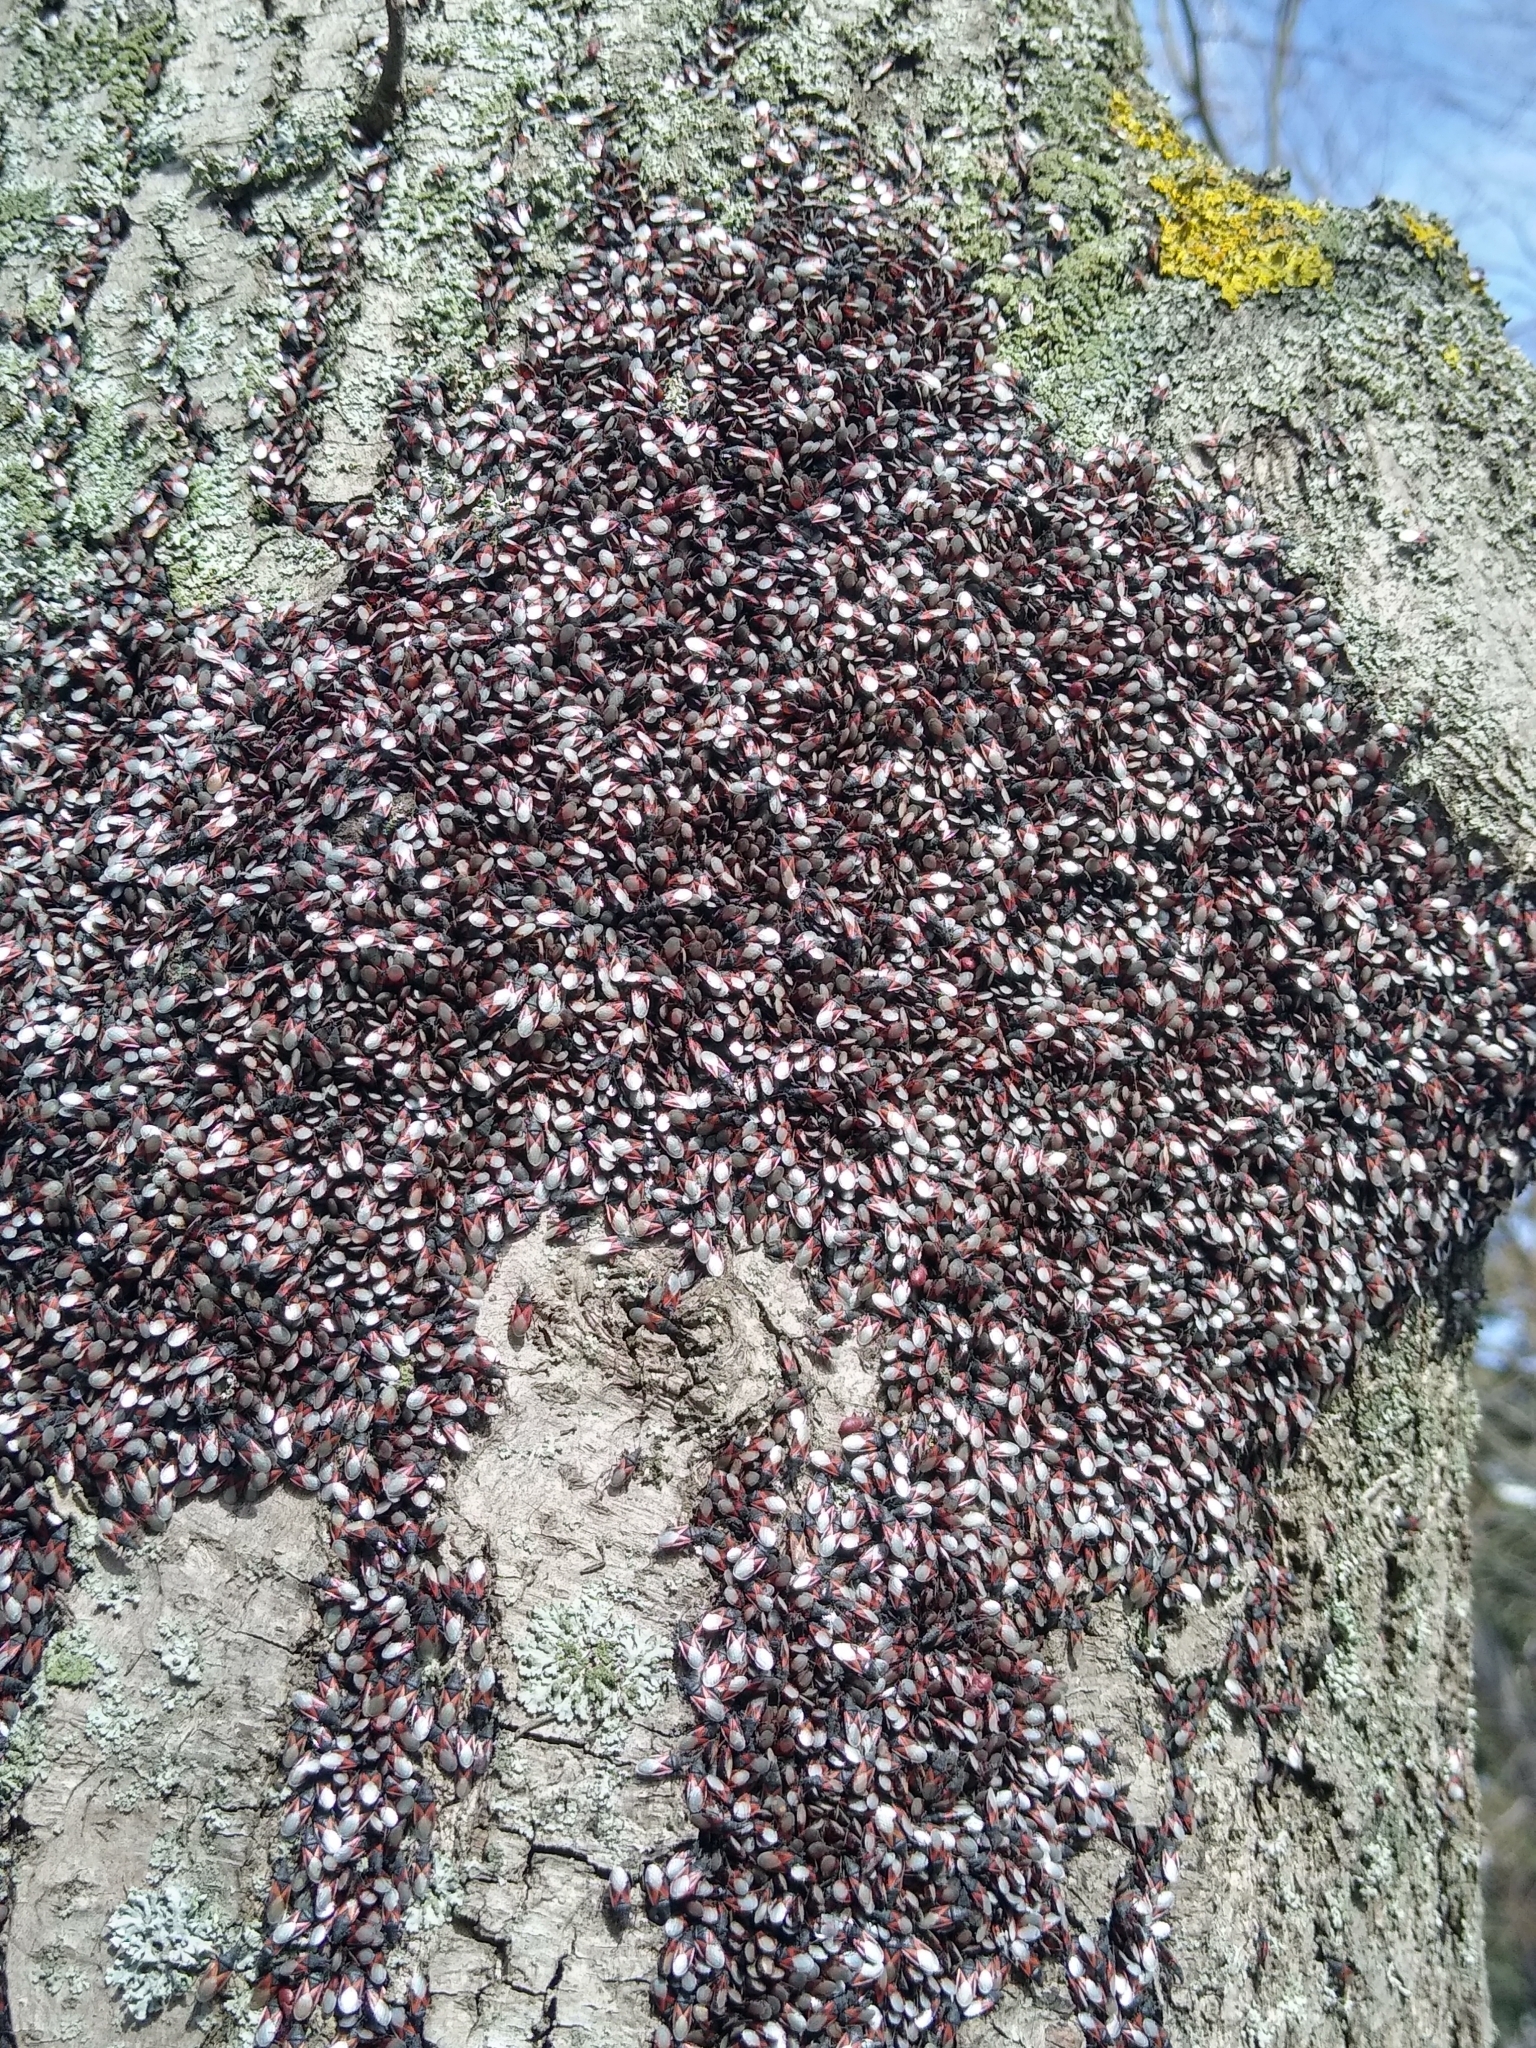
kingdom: Animalia
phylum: Arthropoda
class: Insecta
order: Hemiptera
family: Oxycarenidae
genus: Oxycarenus
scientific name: Oxycarenus lavaterae
